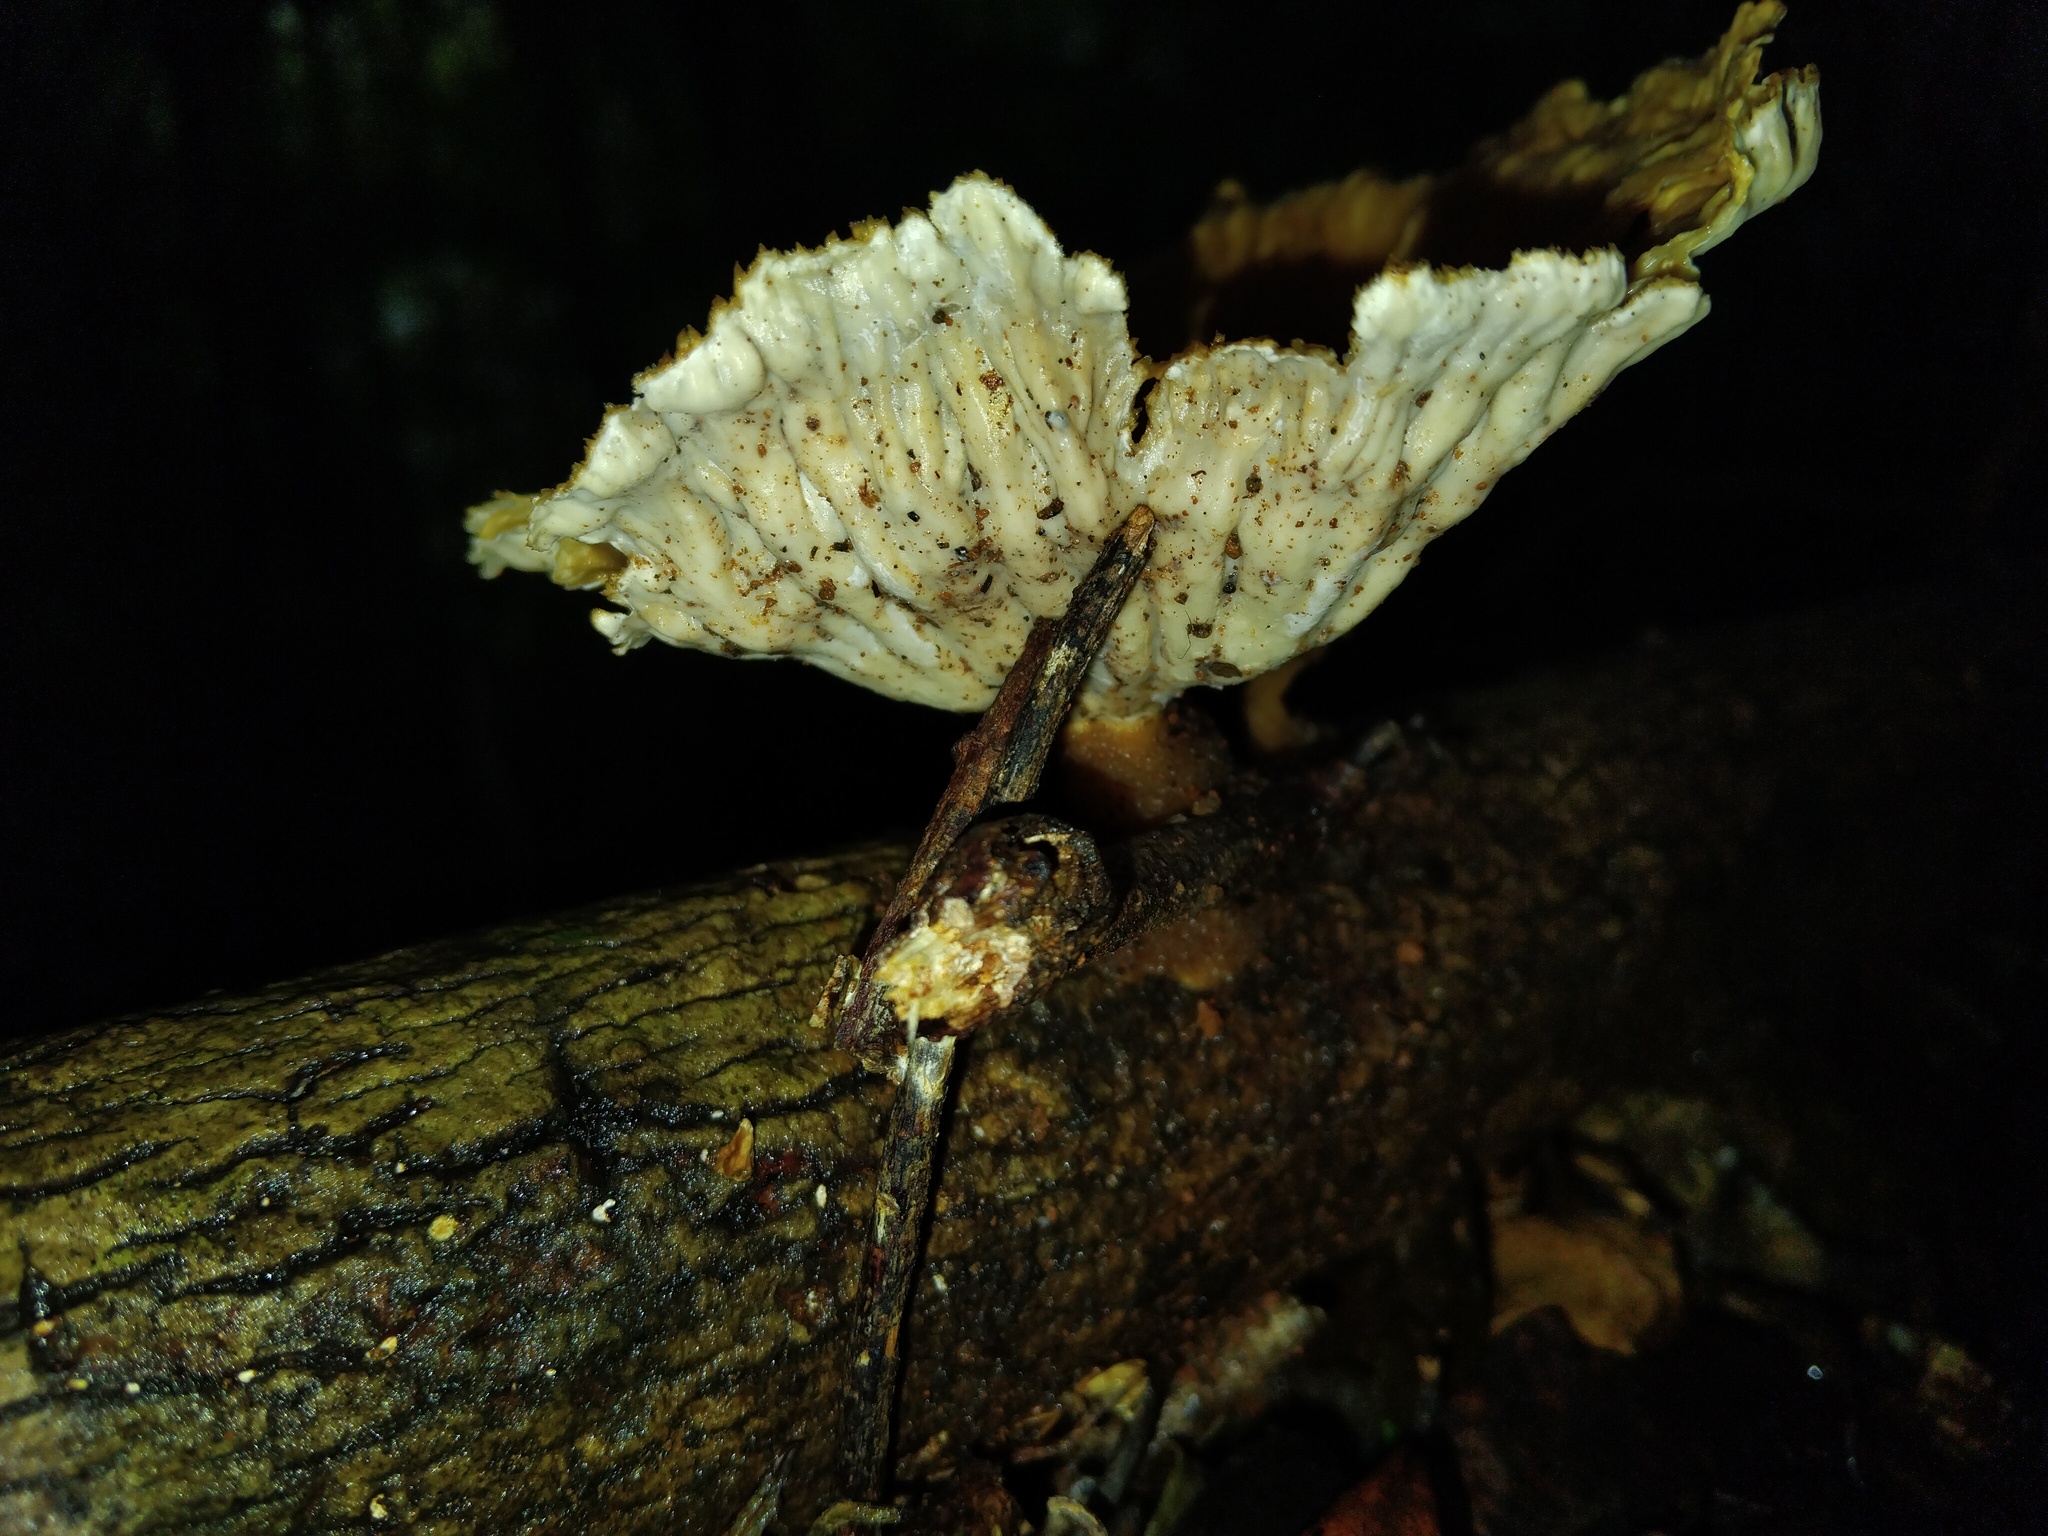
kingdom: Fungi
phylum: Basidiomycota
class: Agaricomycetes
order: Polyporales
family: Panaceae
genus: Cymatoderma
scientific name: Cymatoderma elegans
